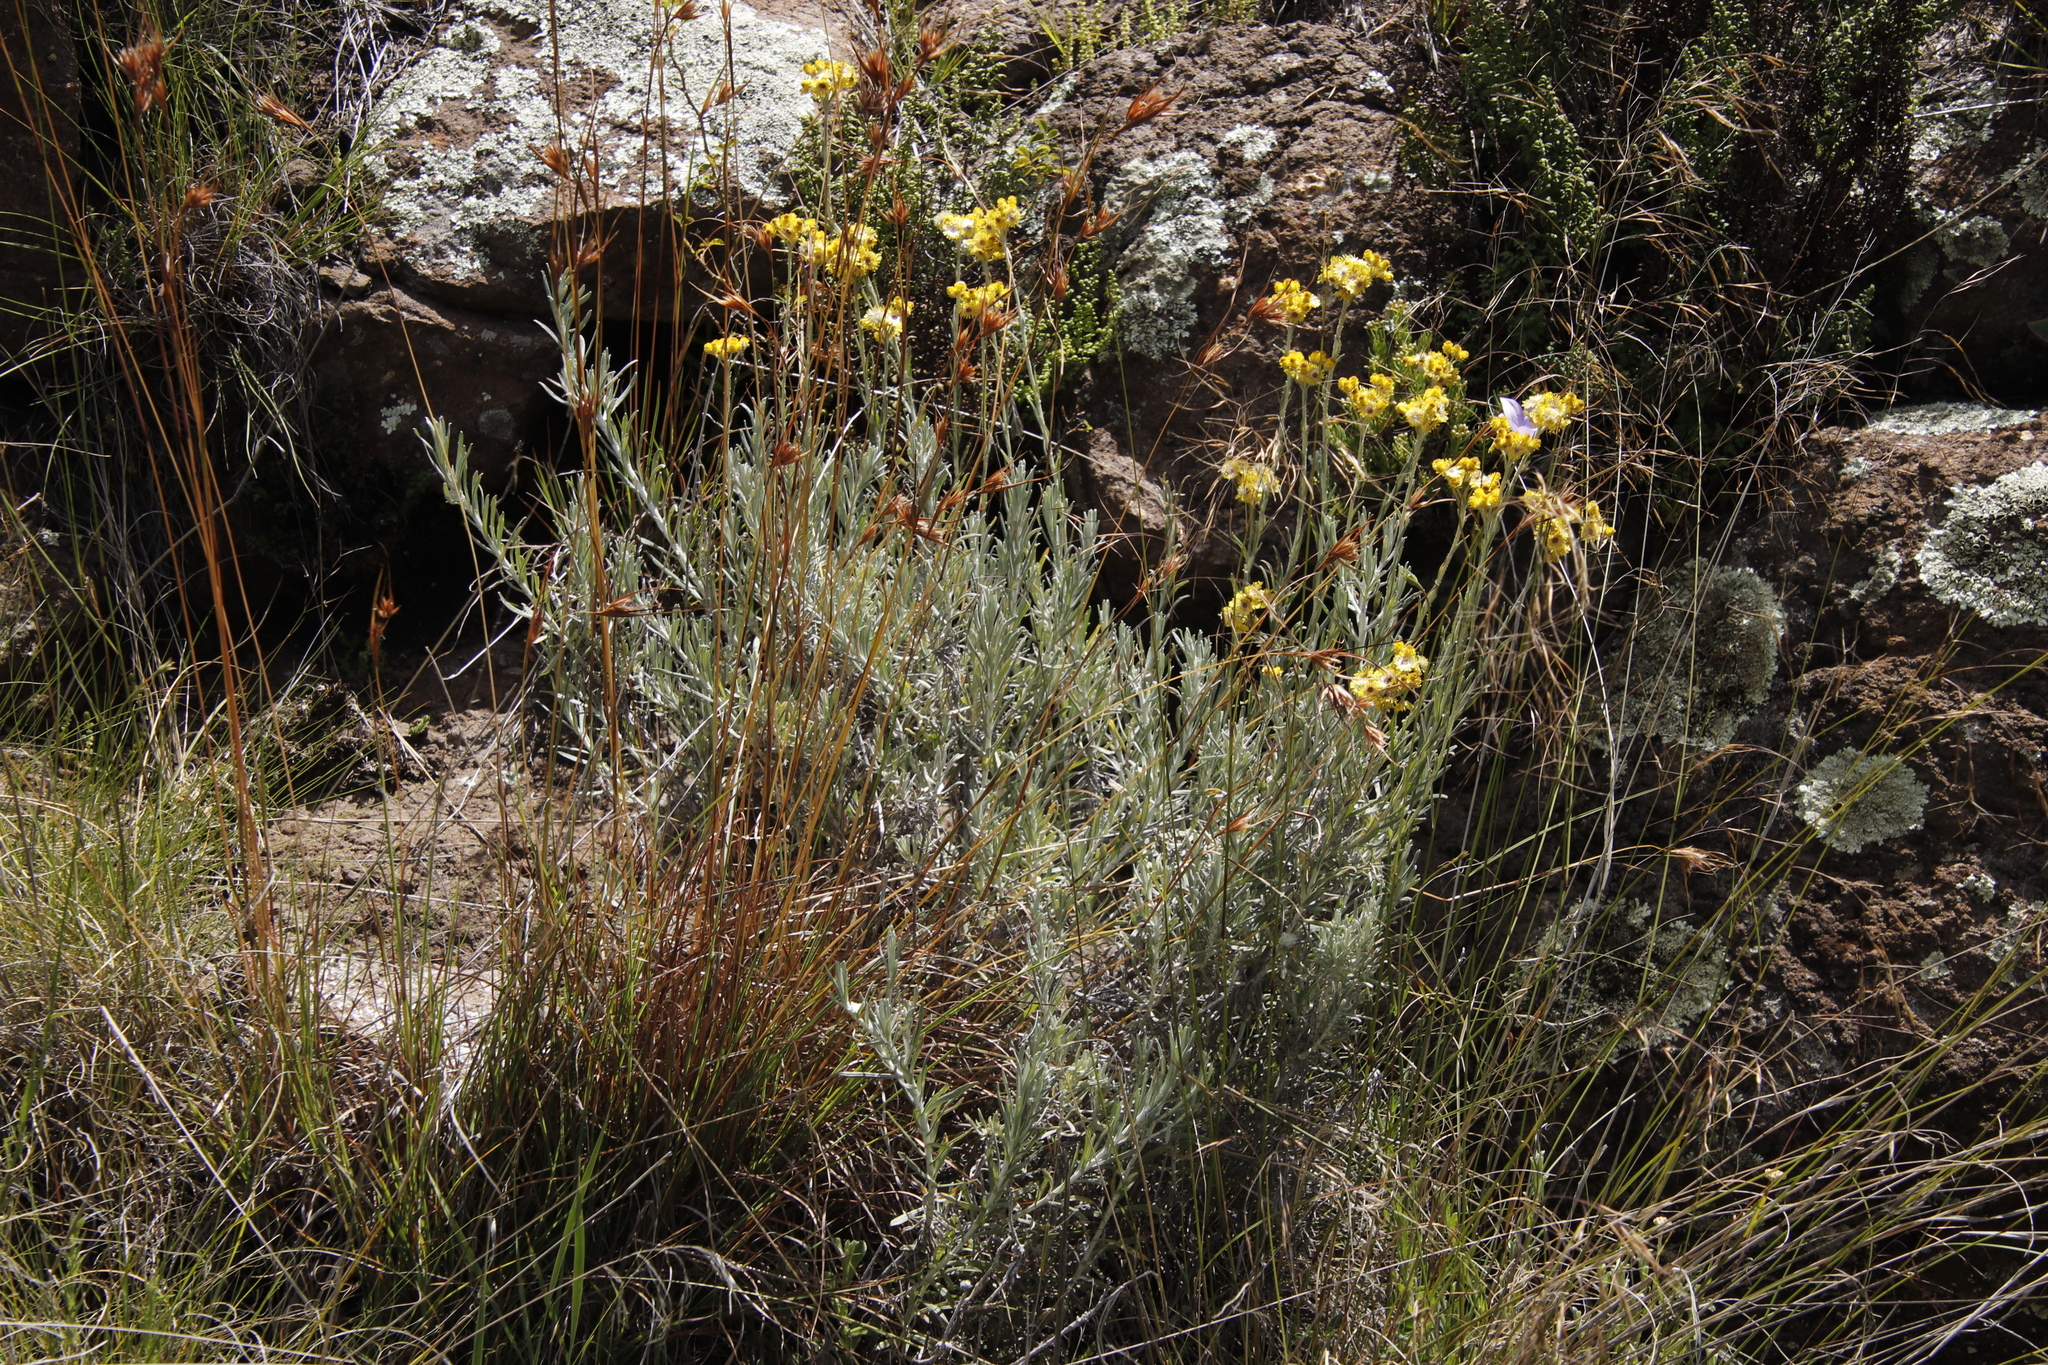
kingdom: Plantae
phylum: Tracheophyta
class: Liliopsida
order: Poales
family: Poaceae
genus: Themeda
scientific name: Themeda triandra
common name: Kangaroo grass
